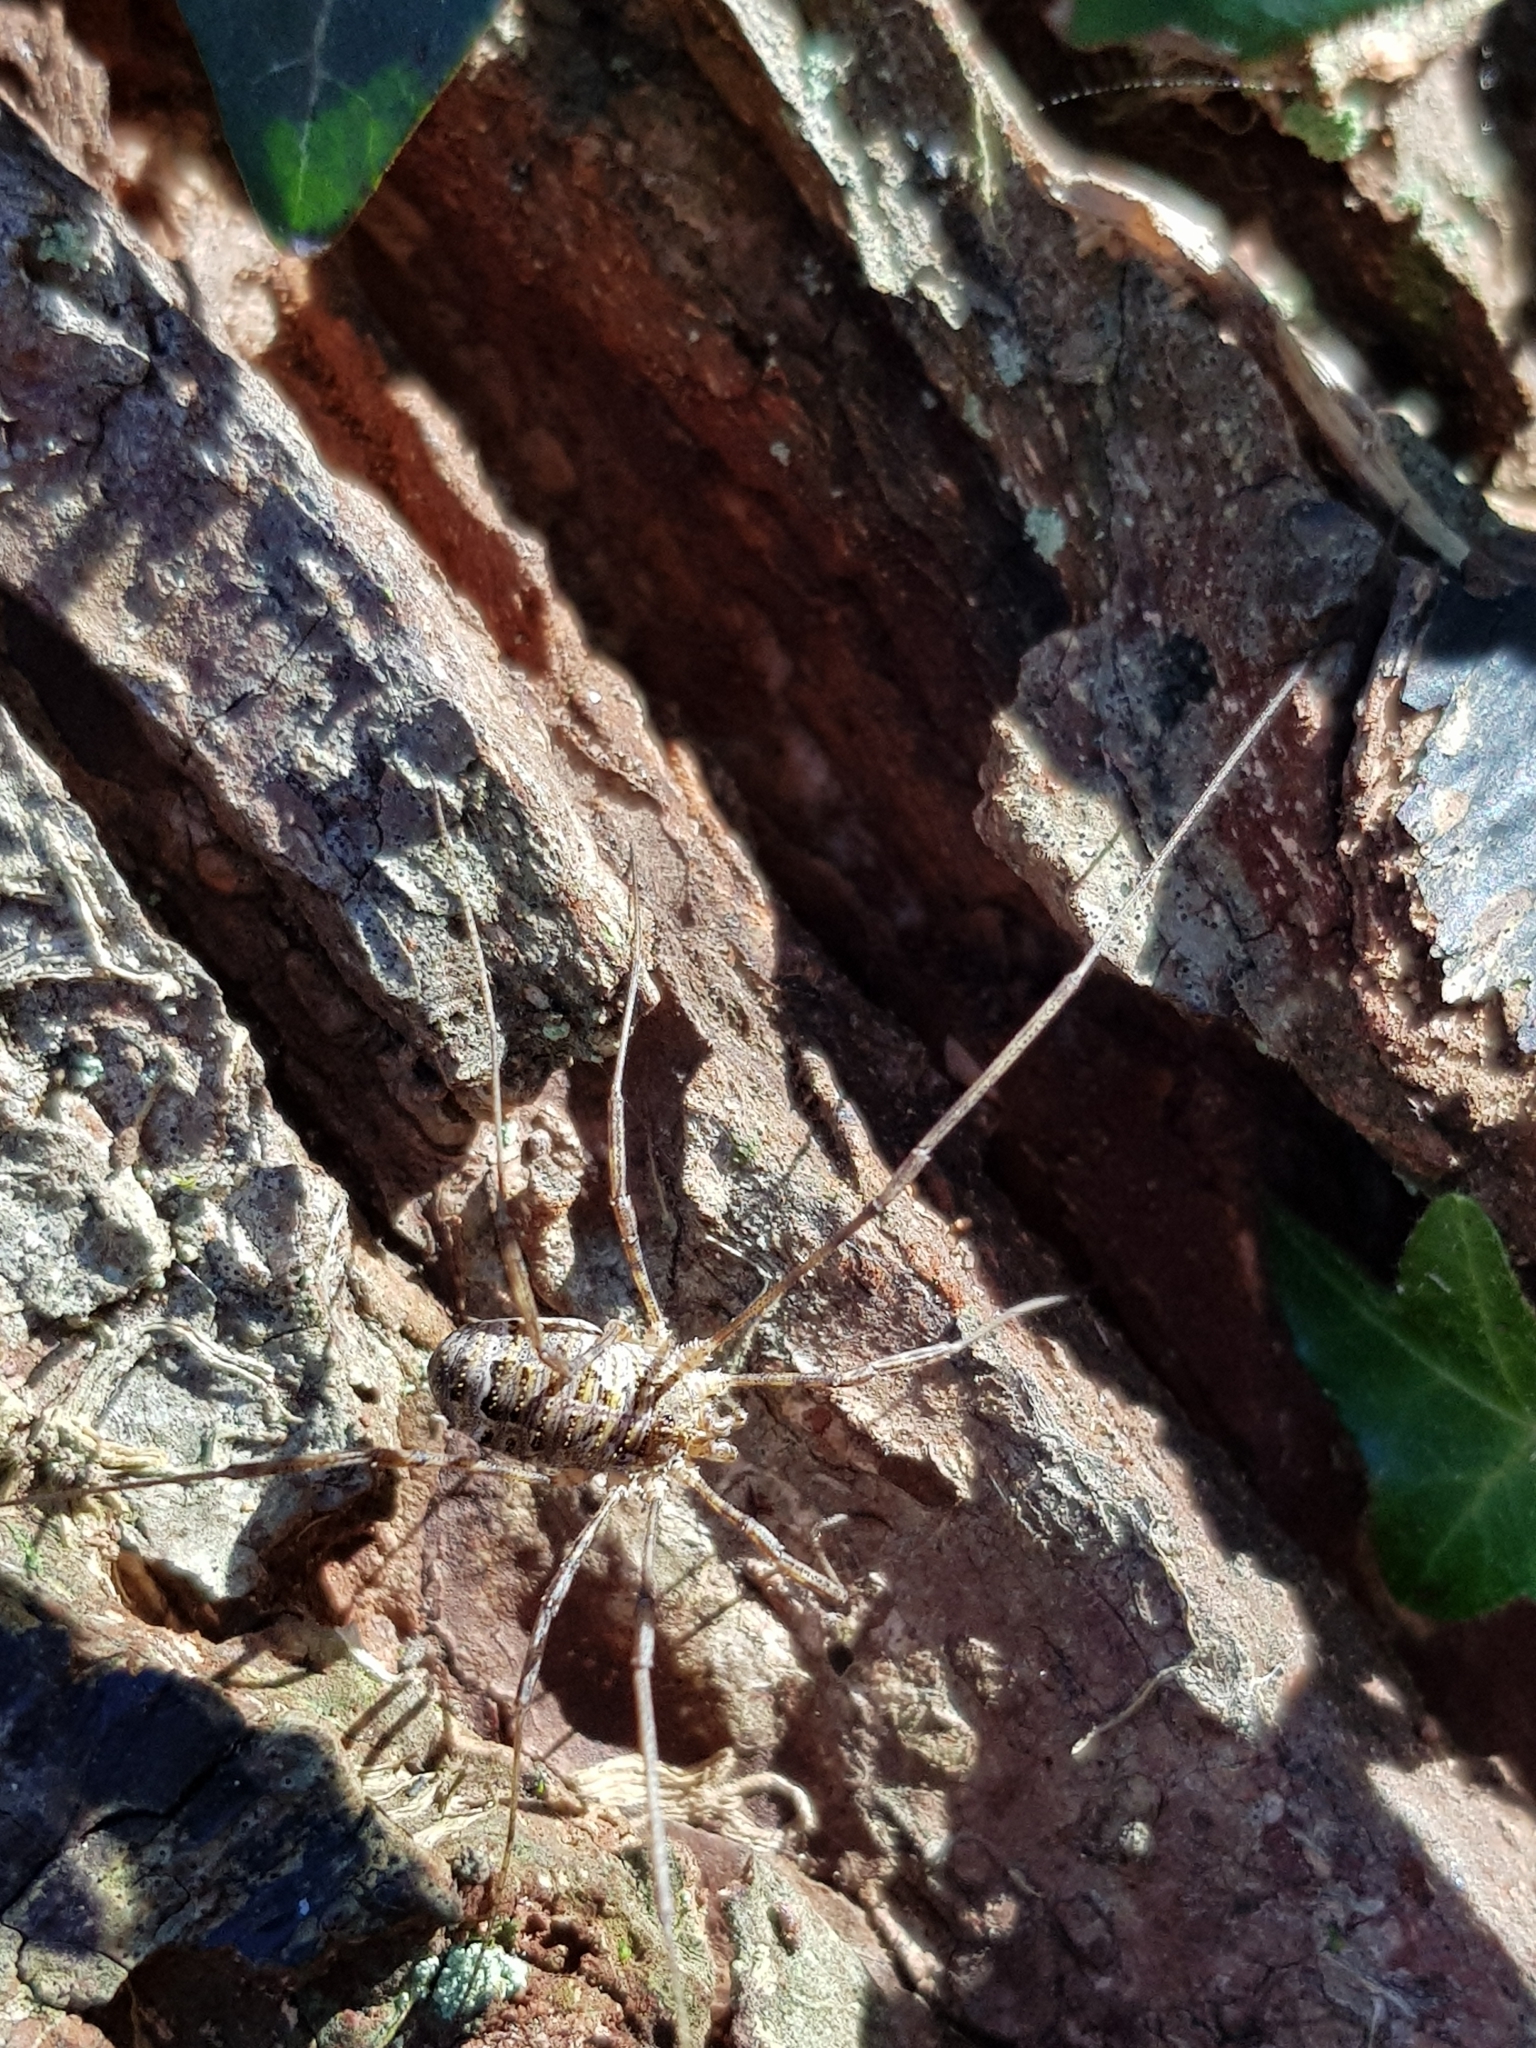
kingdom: Animalia
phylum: Arthropoda
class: Arachnida
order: Opiliones
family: Phalangiidae
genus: Lacinius
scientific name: Lacinius dentiger
